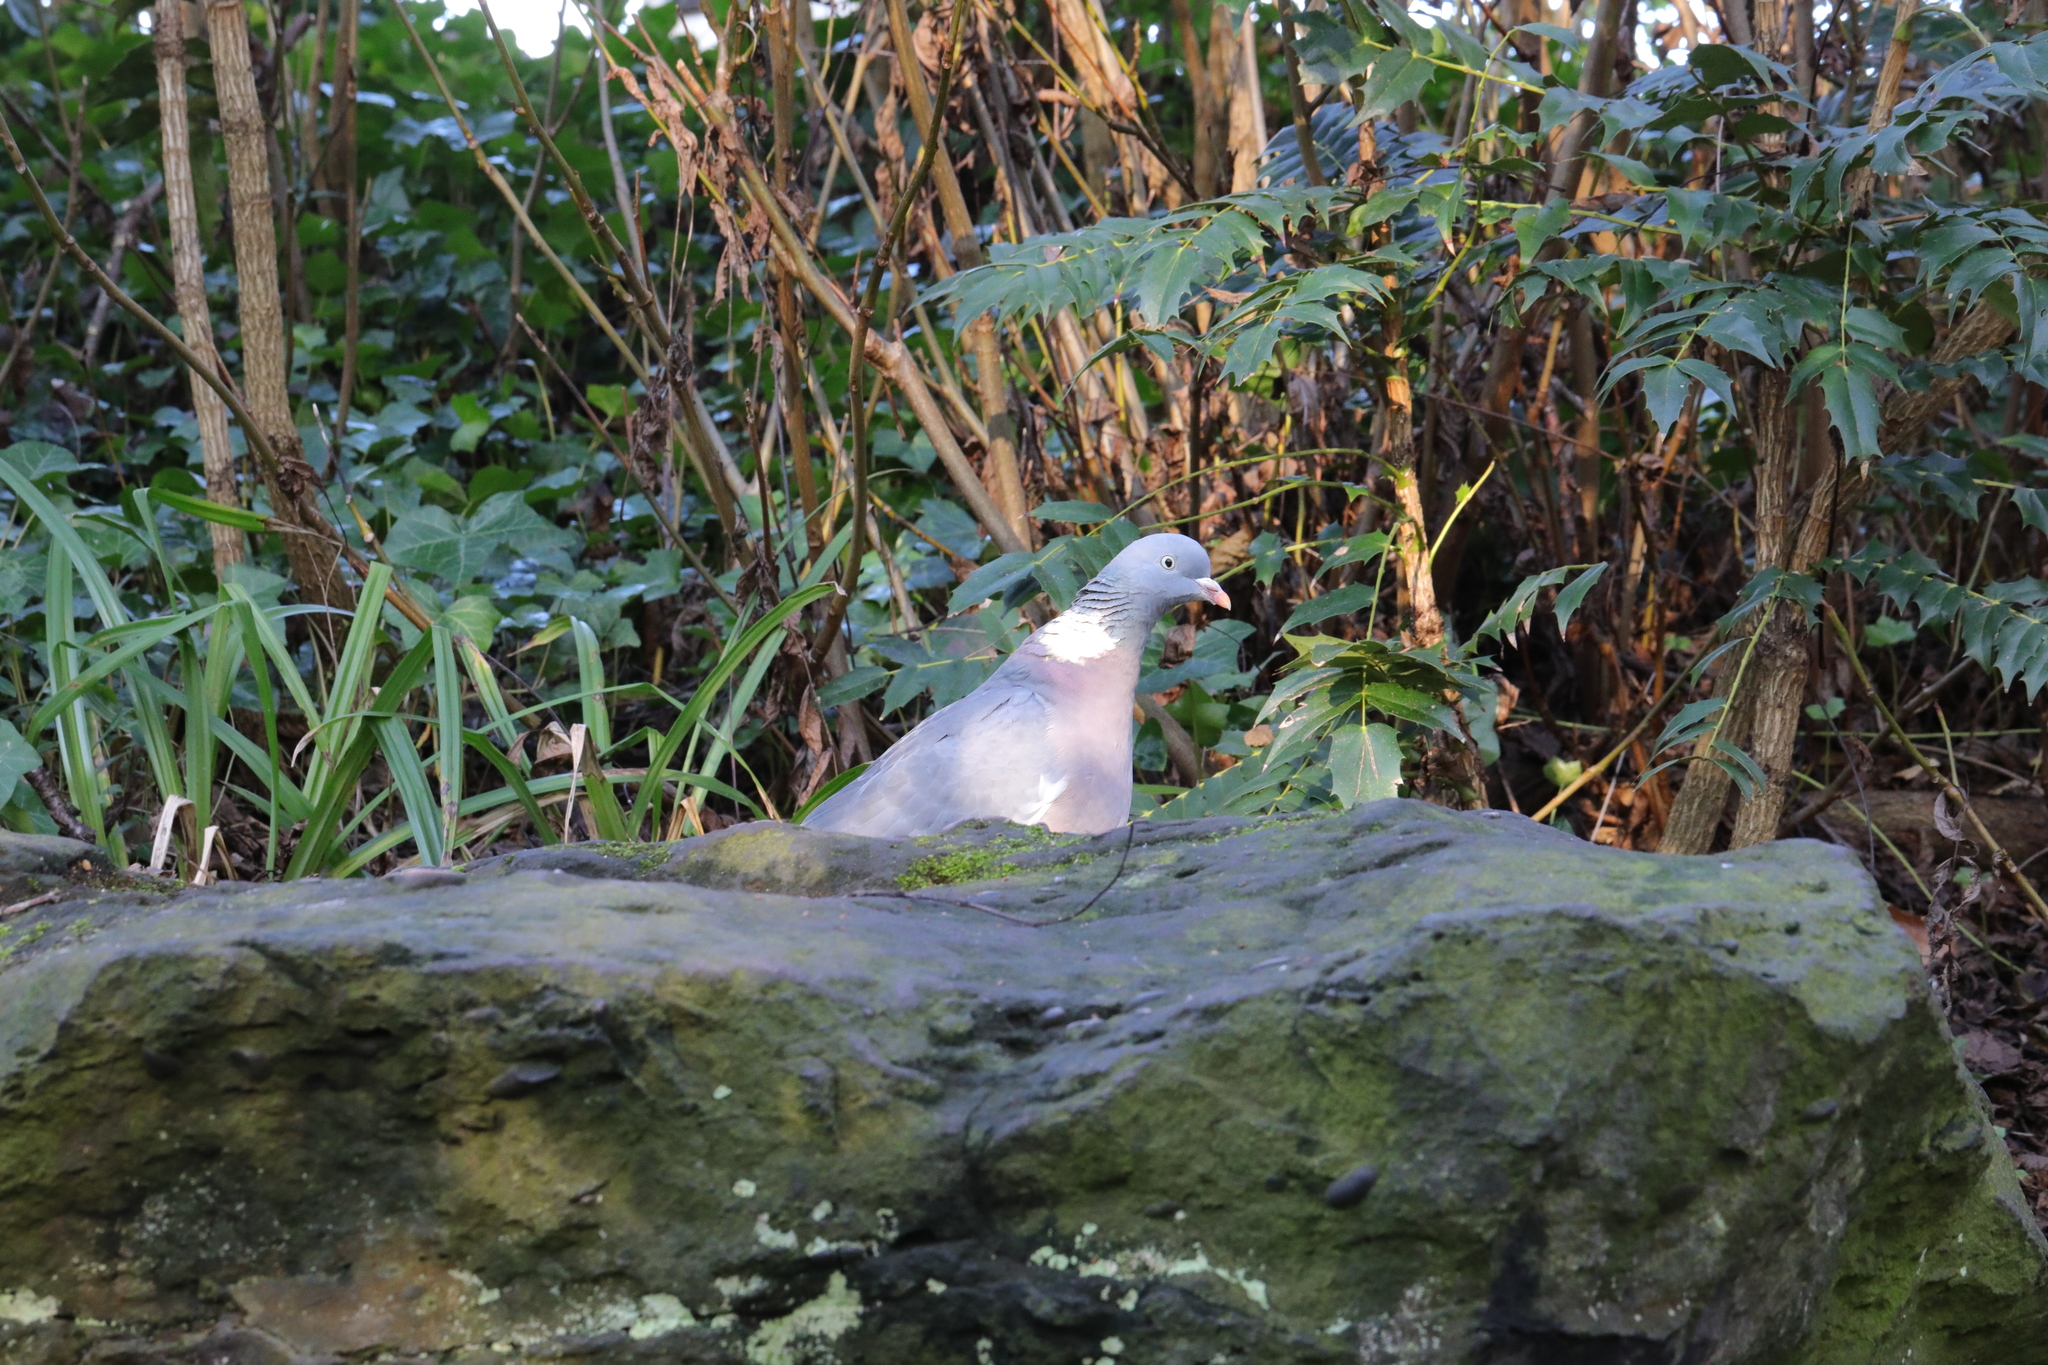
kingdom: Animalia
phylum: Chordata
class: Aves
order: Columbiformes
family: Columbidae
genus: Columba
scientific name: Columba palumbus
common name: Common wood pigeon
